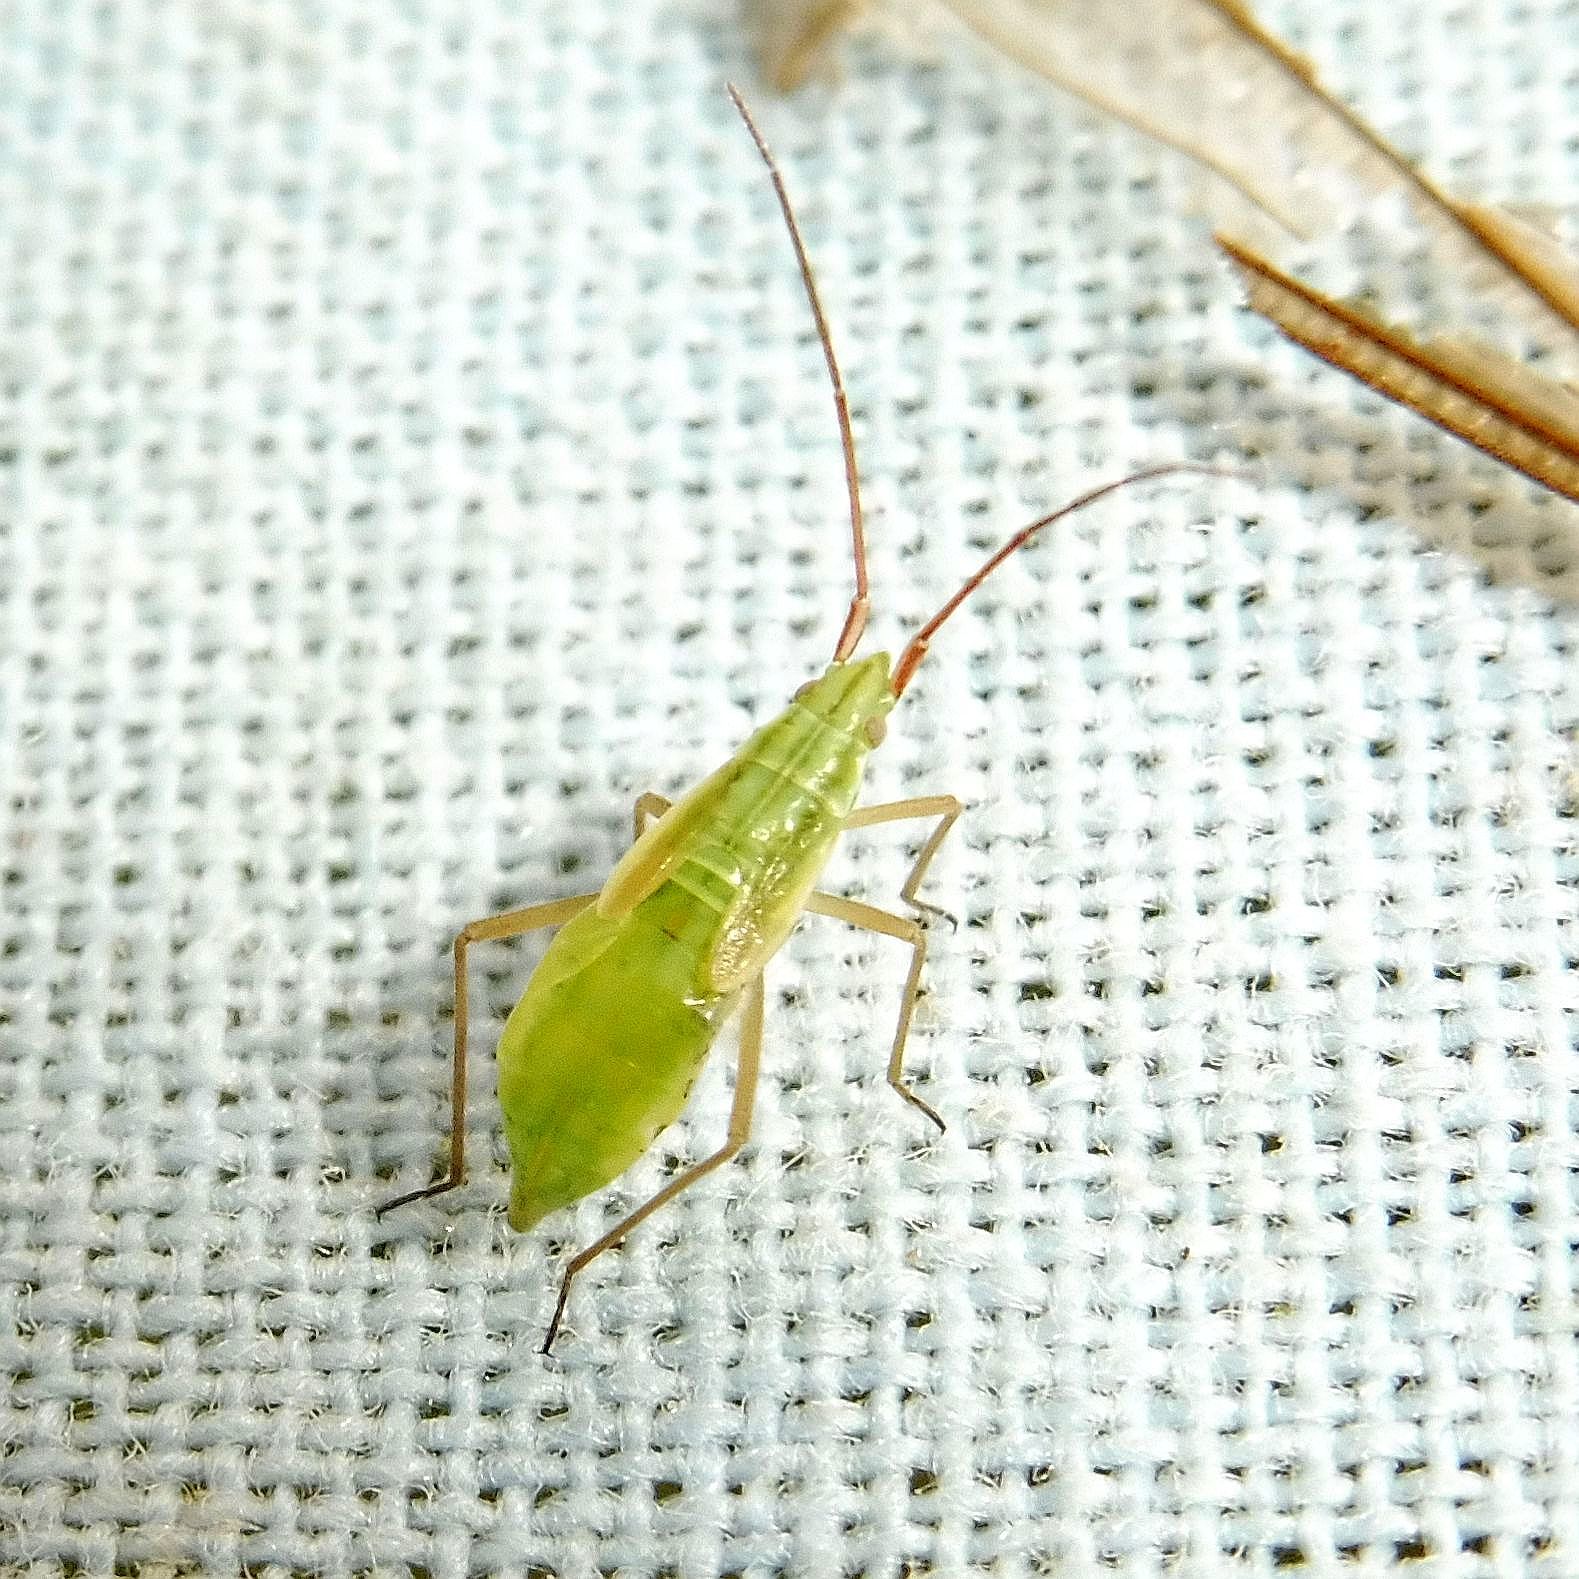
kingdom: Animalia
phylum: Arthropoda
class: Insecta
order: Hemiptera
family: Miridae
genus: Trigonotylus
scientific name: Trigonotylus caelestialium
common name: Rice leaf bug
